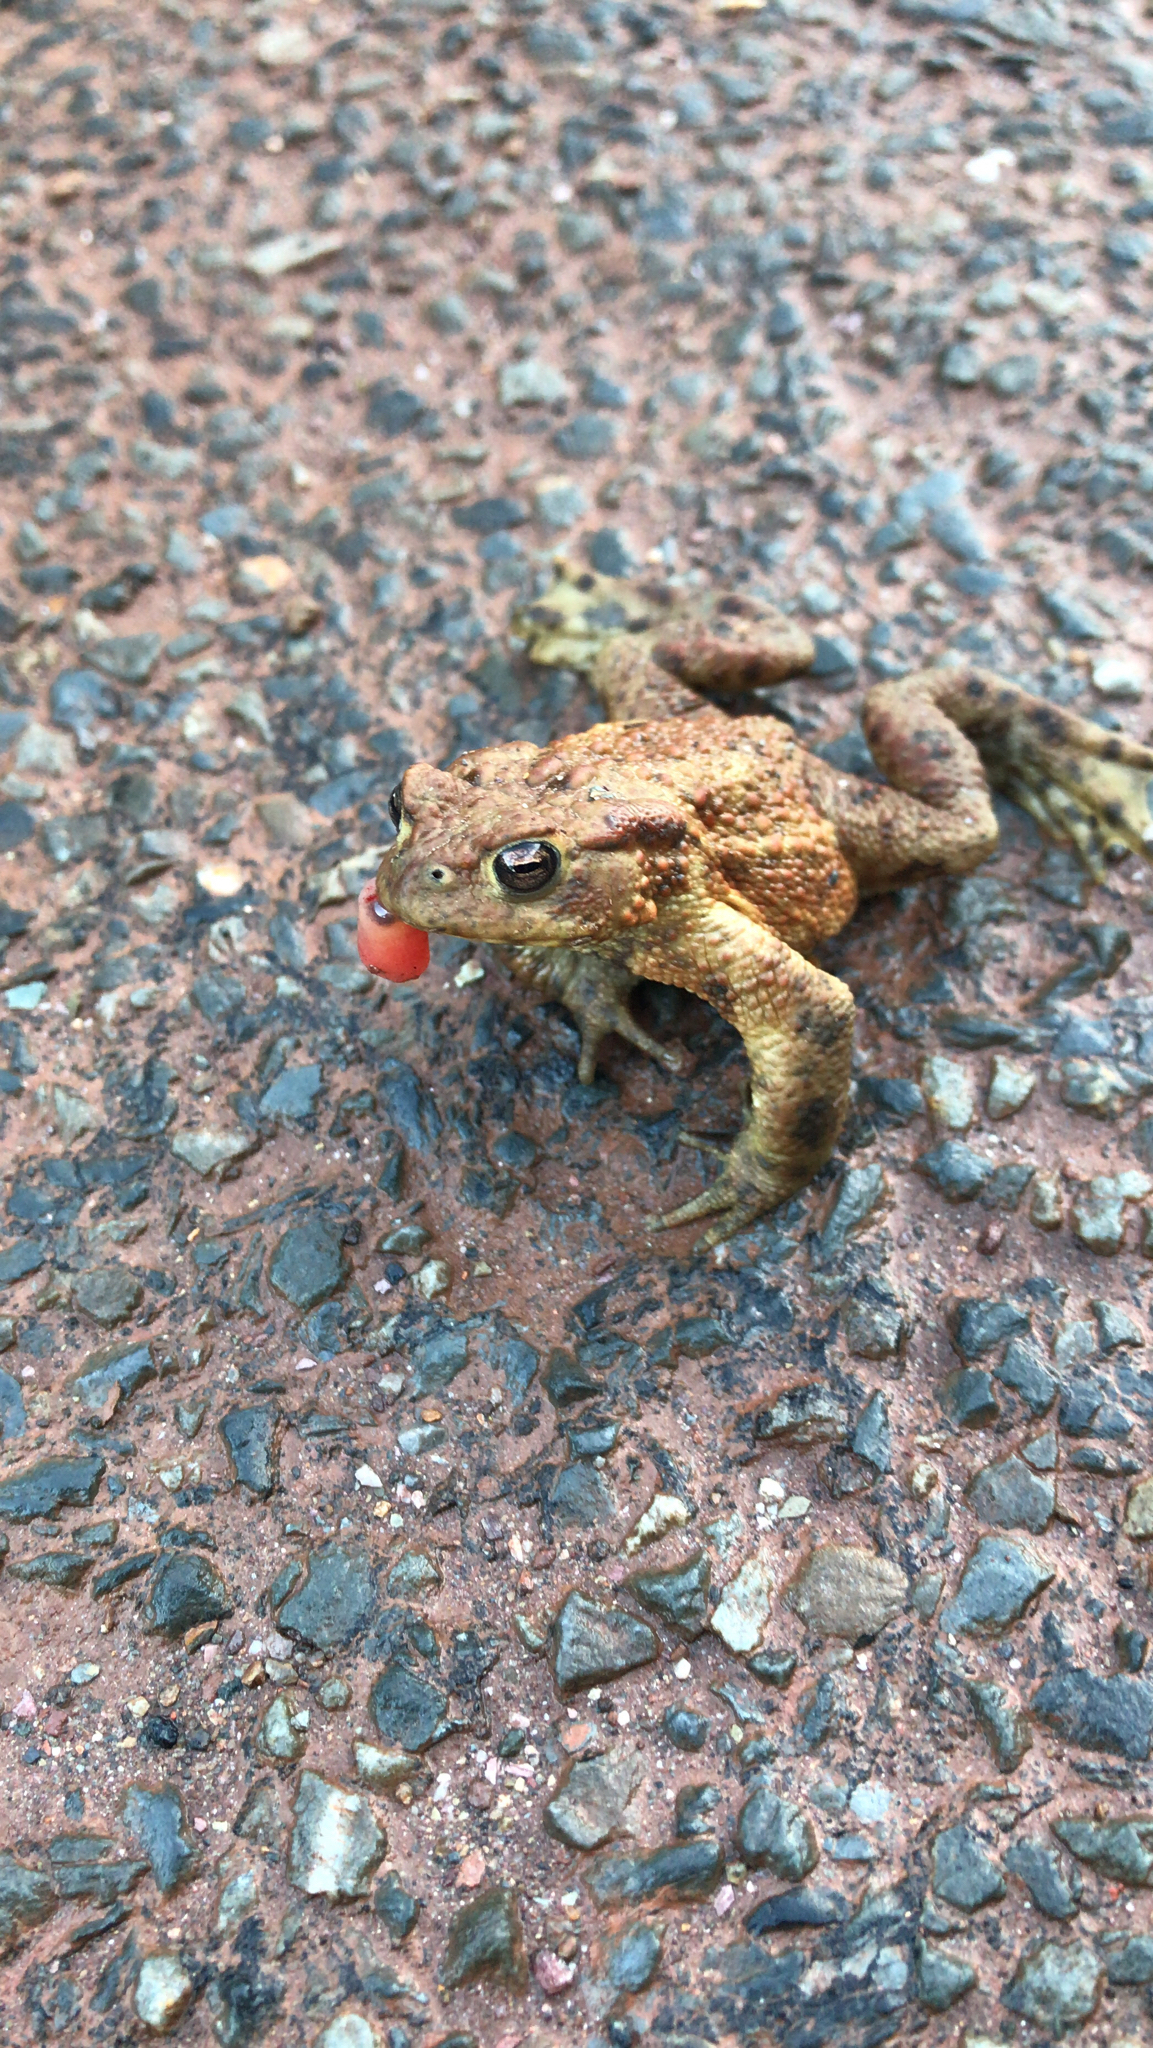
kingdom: Animalia
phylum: Chordata
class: Amphibia
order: Anura
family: Bufonidae
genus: Bufo
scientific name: Bufo bufo
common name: Common toad
